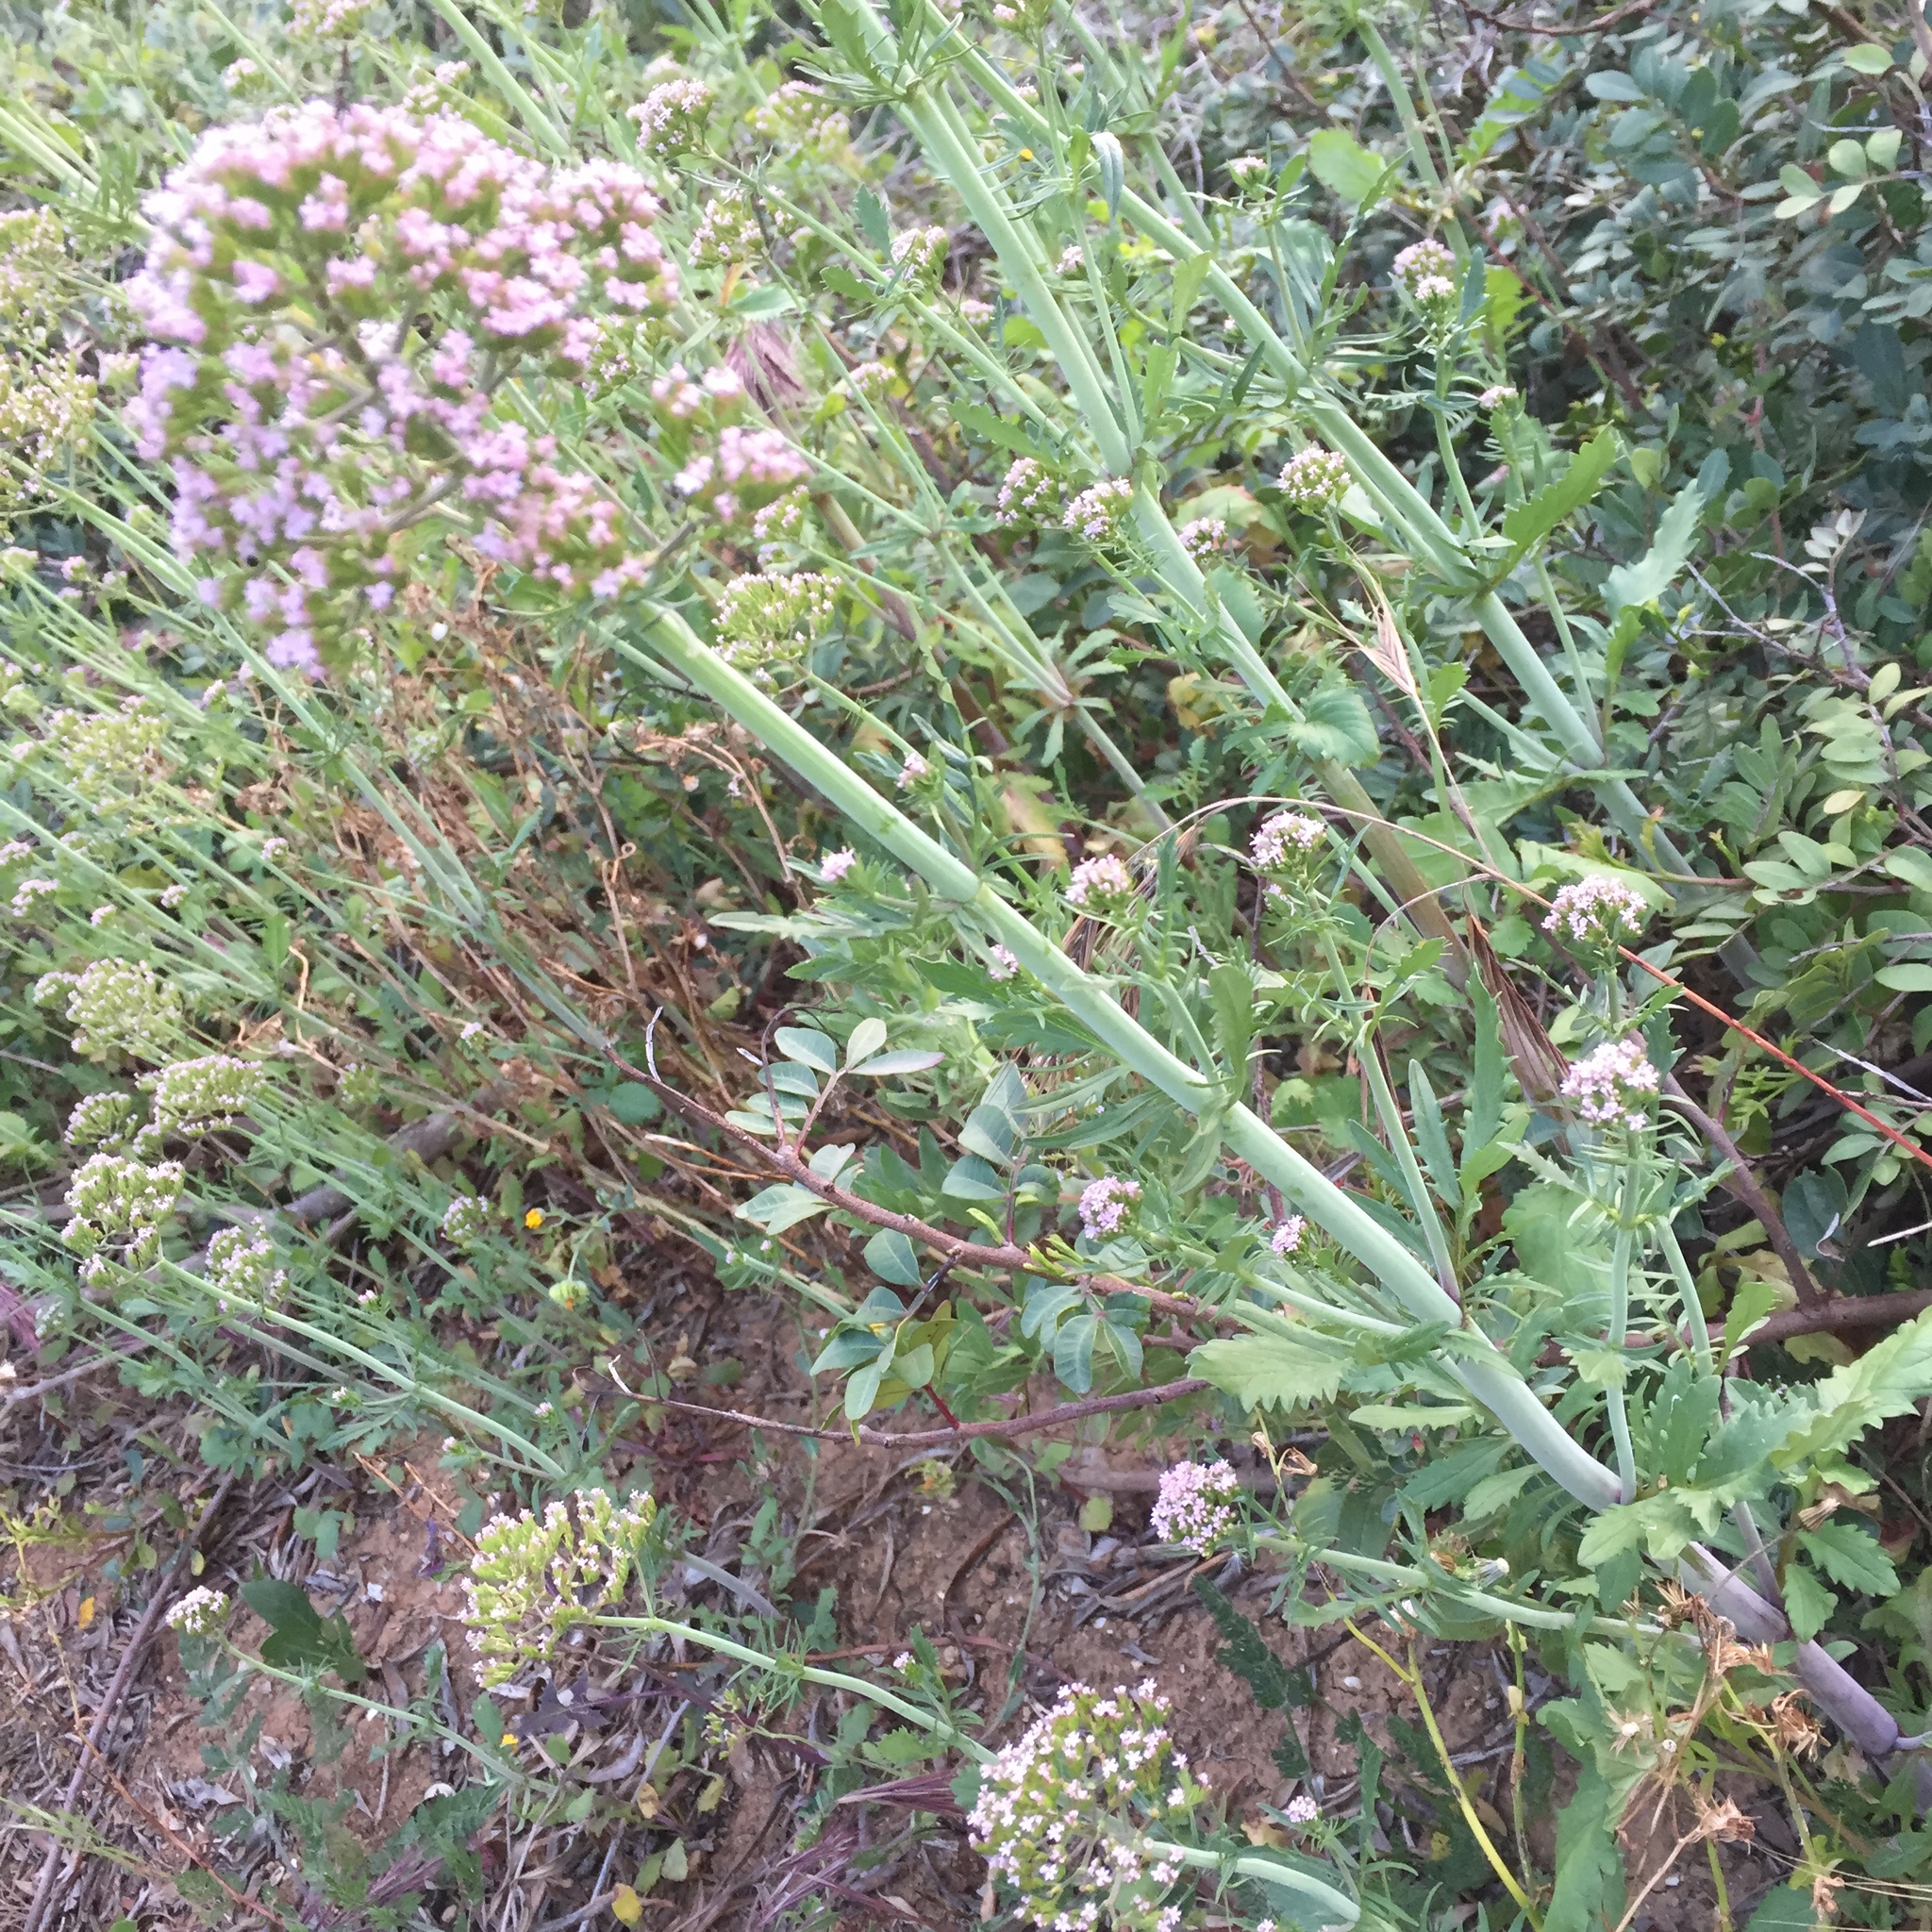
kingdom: Plantae
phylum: Tracheophyta
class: Magnoliopsida
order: Dipsacales
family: Caprifoliaceae
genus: Centranthus
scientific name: Centranthus calcitrapae
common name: Annual valerian
